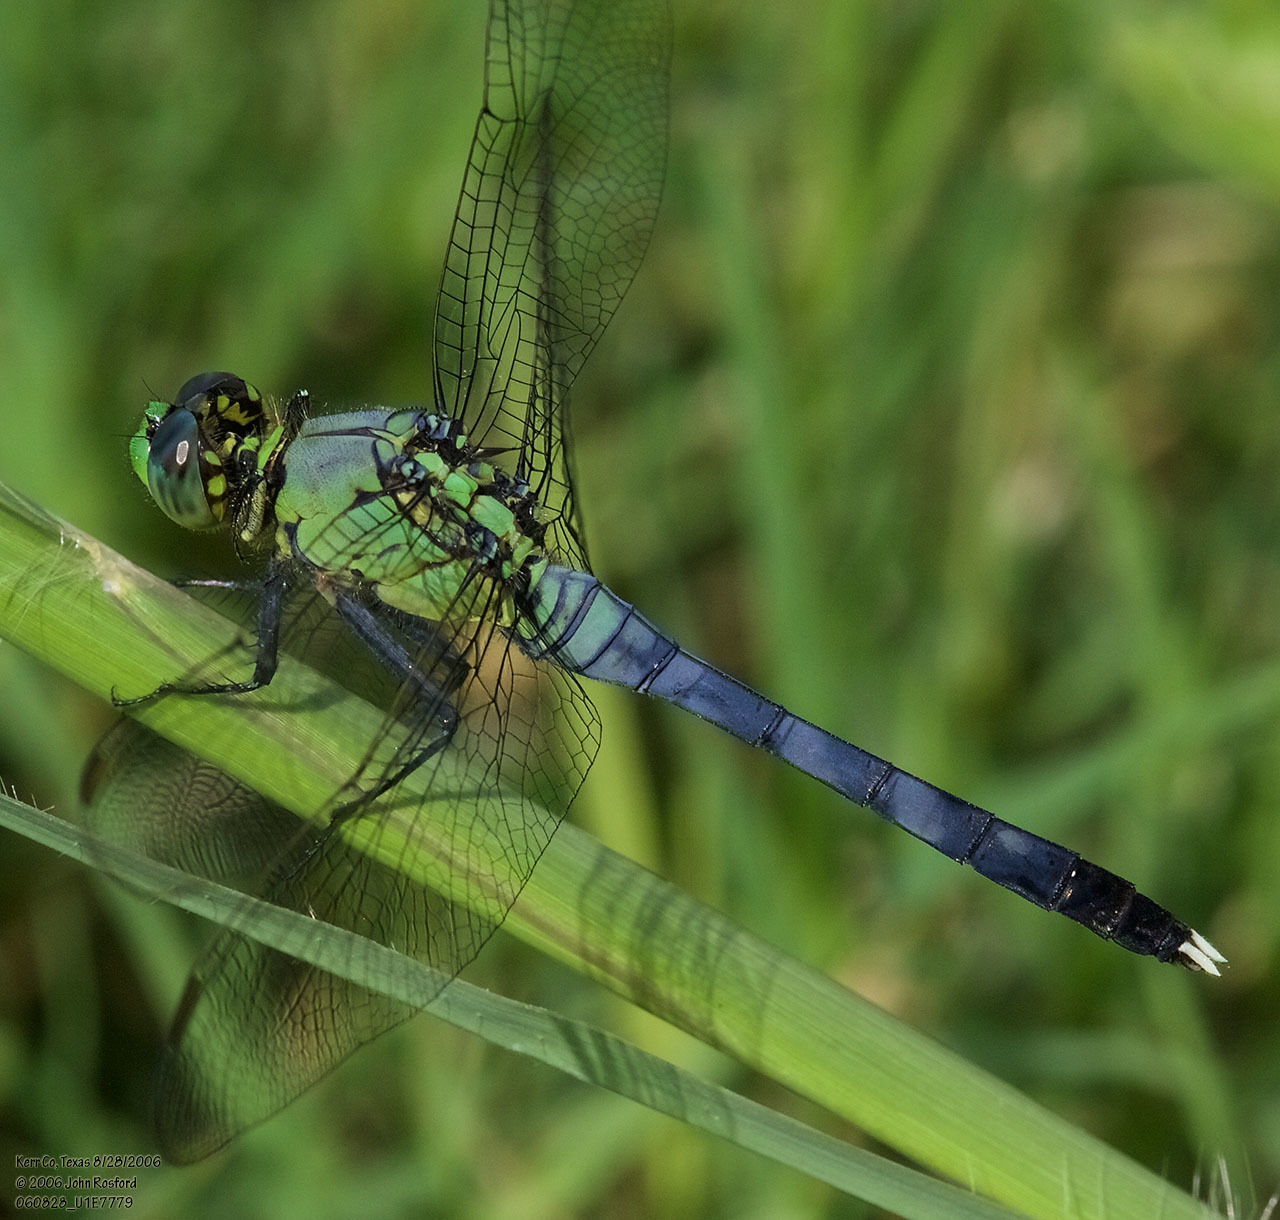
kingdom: Animalia
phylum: Arthropoda
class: Insecta
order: Odonata
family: Libellulidae
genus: Erythemis
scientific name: Erythemis simplicicollis
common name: Eastern pondhawk
